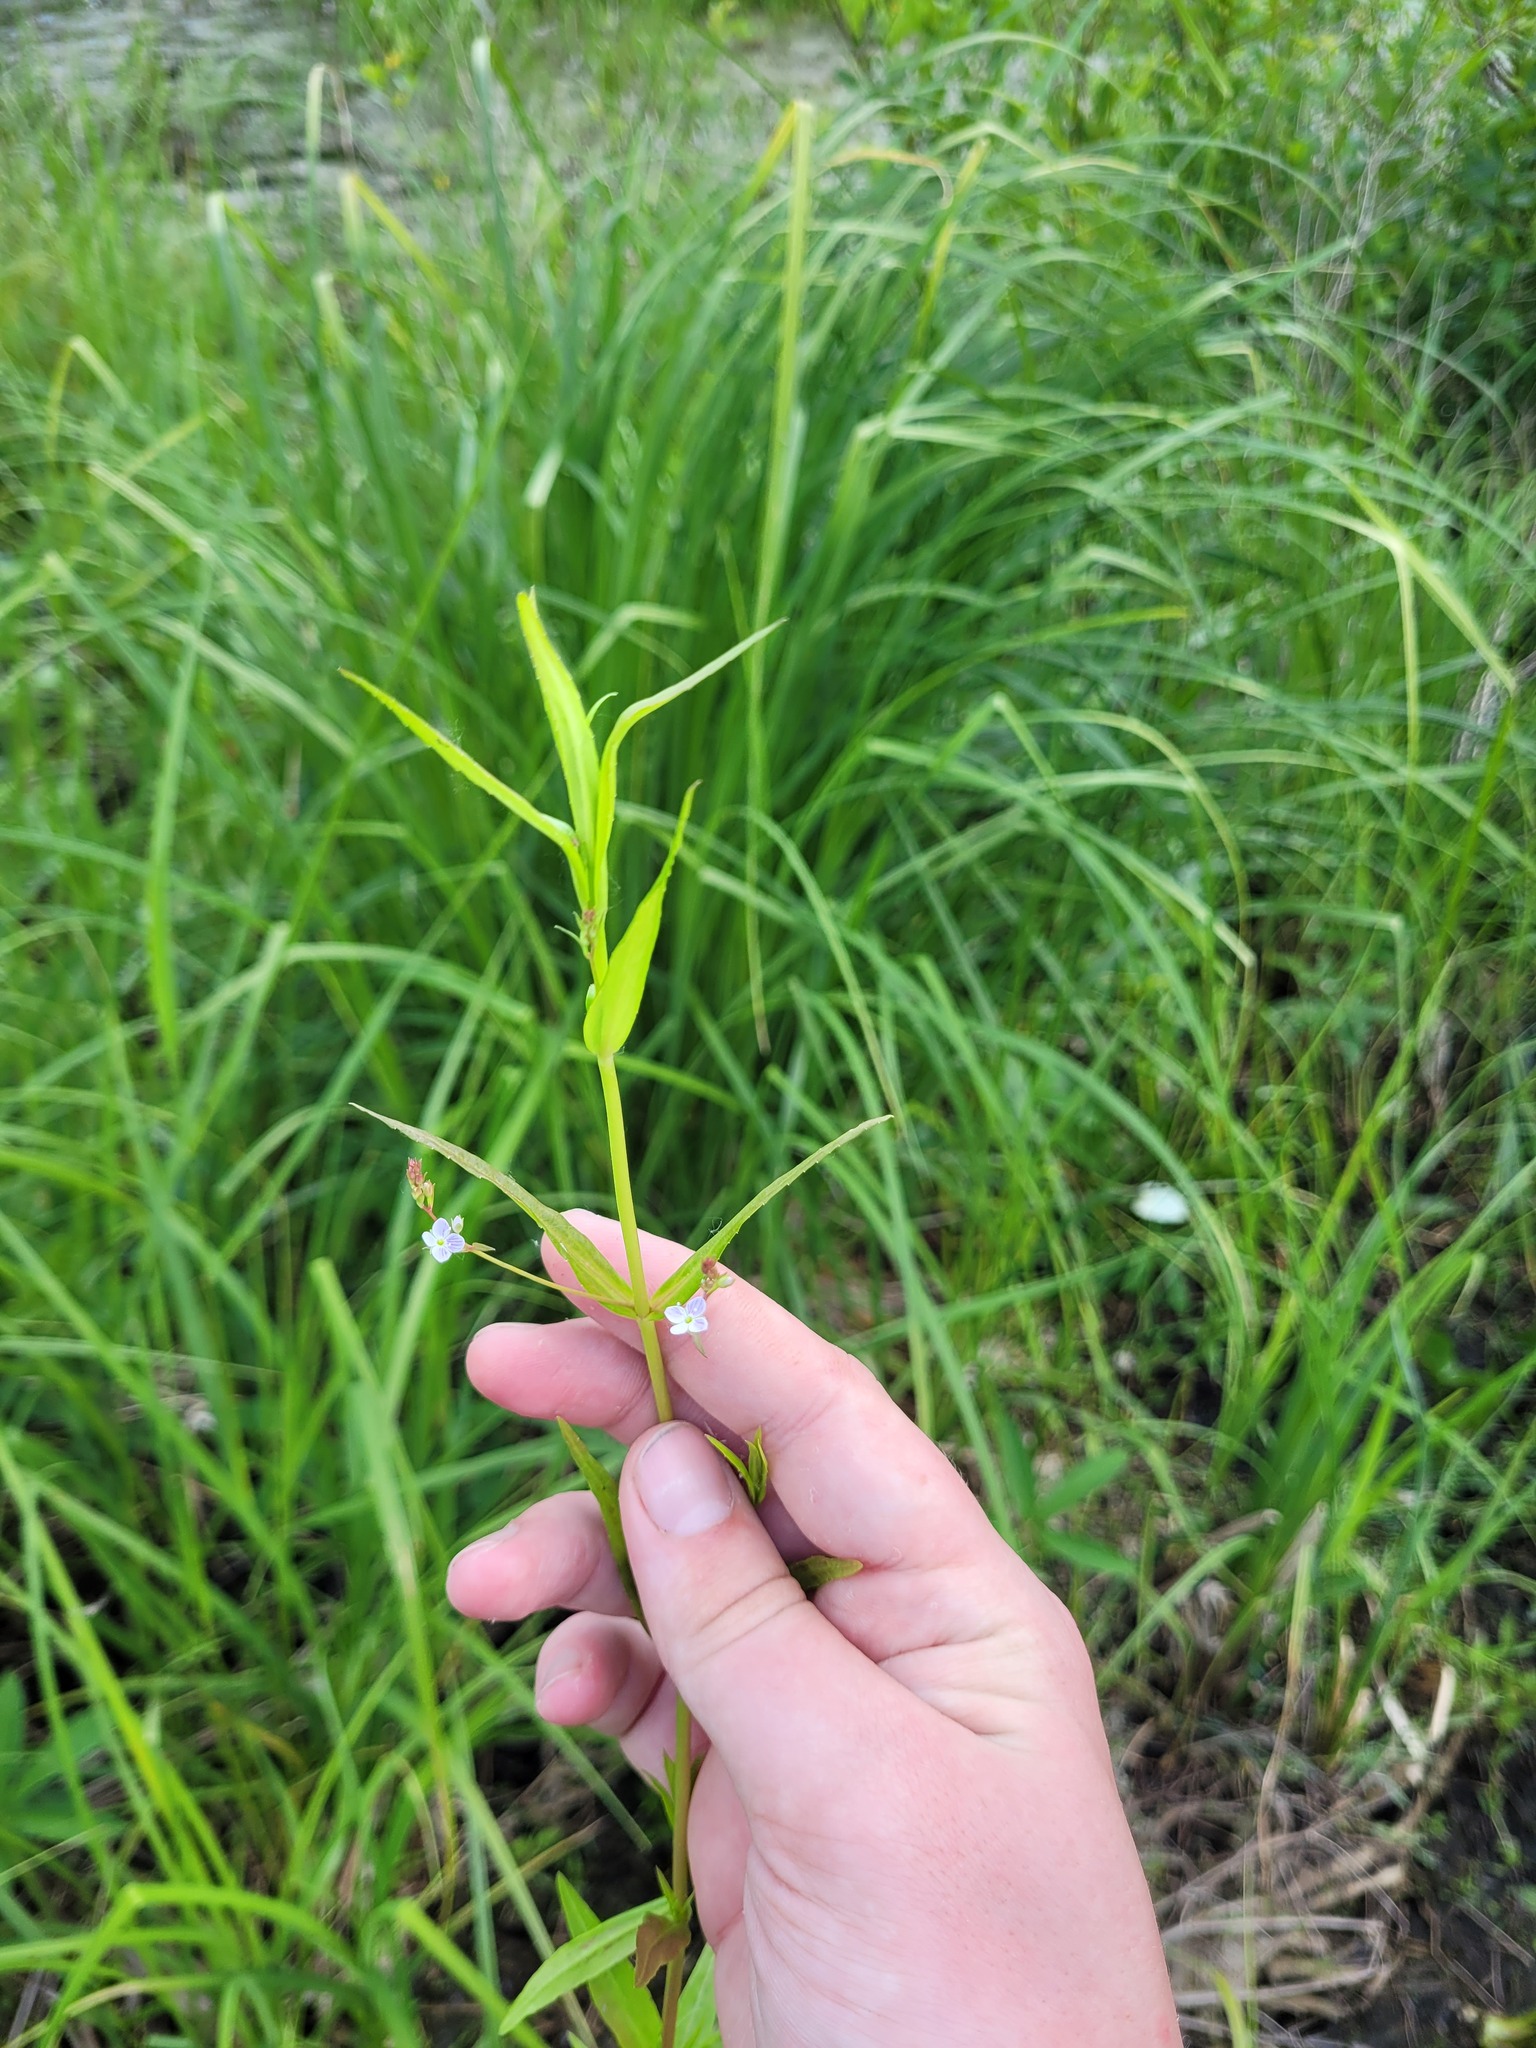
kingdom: Plantae
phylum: Tracheophyta
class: Magnoliopsida
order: Lamiales
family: Plantaginaceae
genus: Veronica
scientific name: Veronica scutellata
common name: Marsh speedwell
